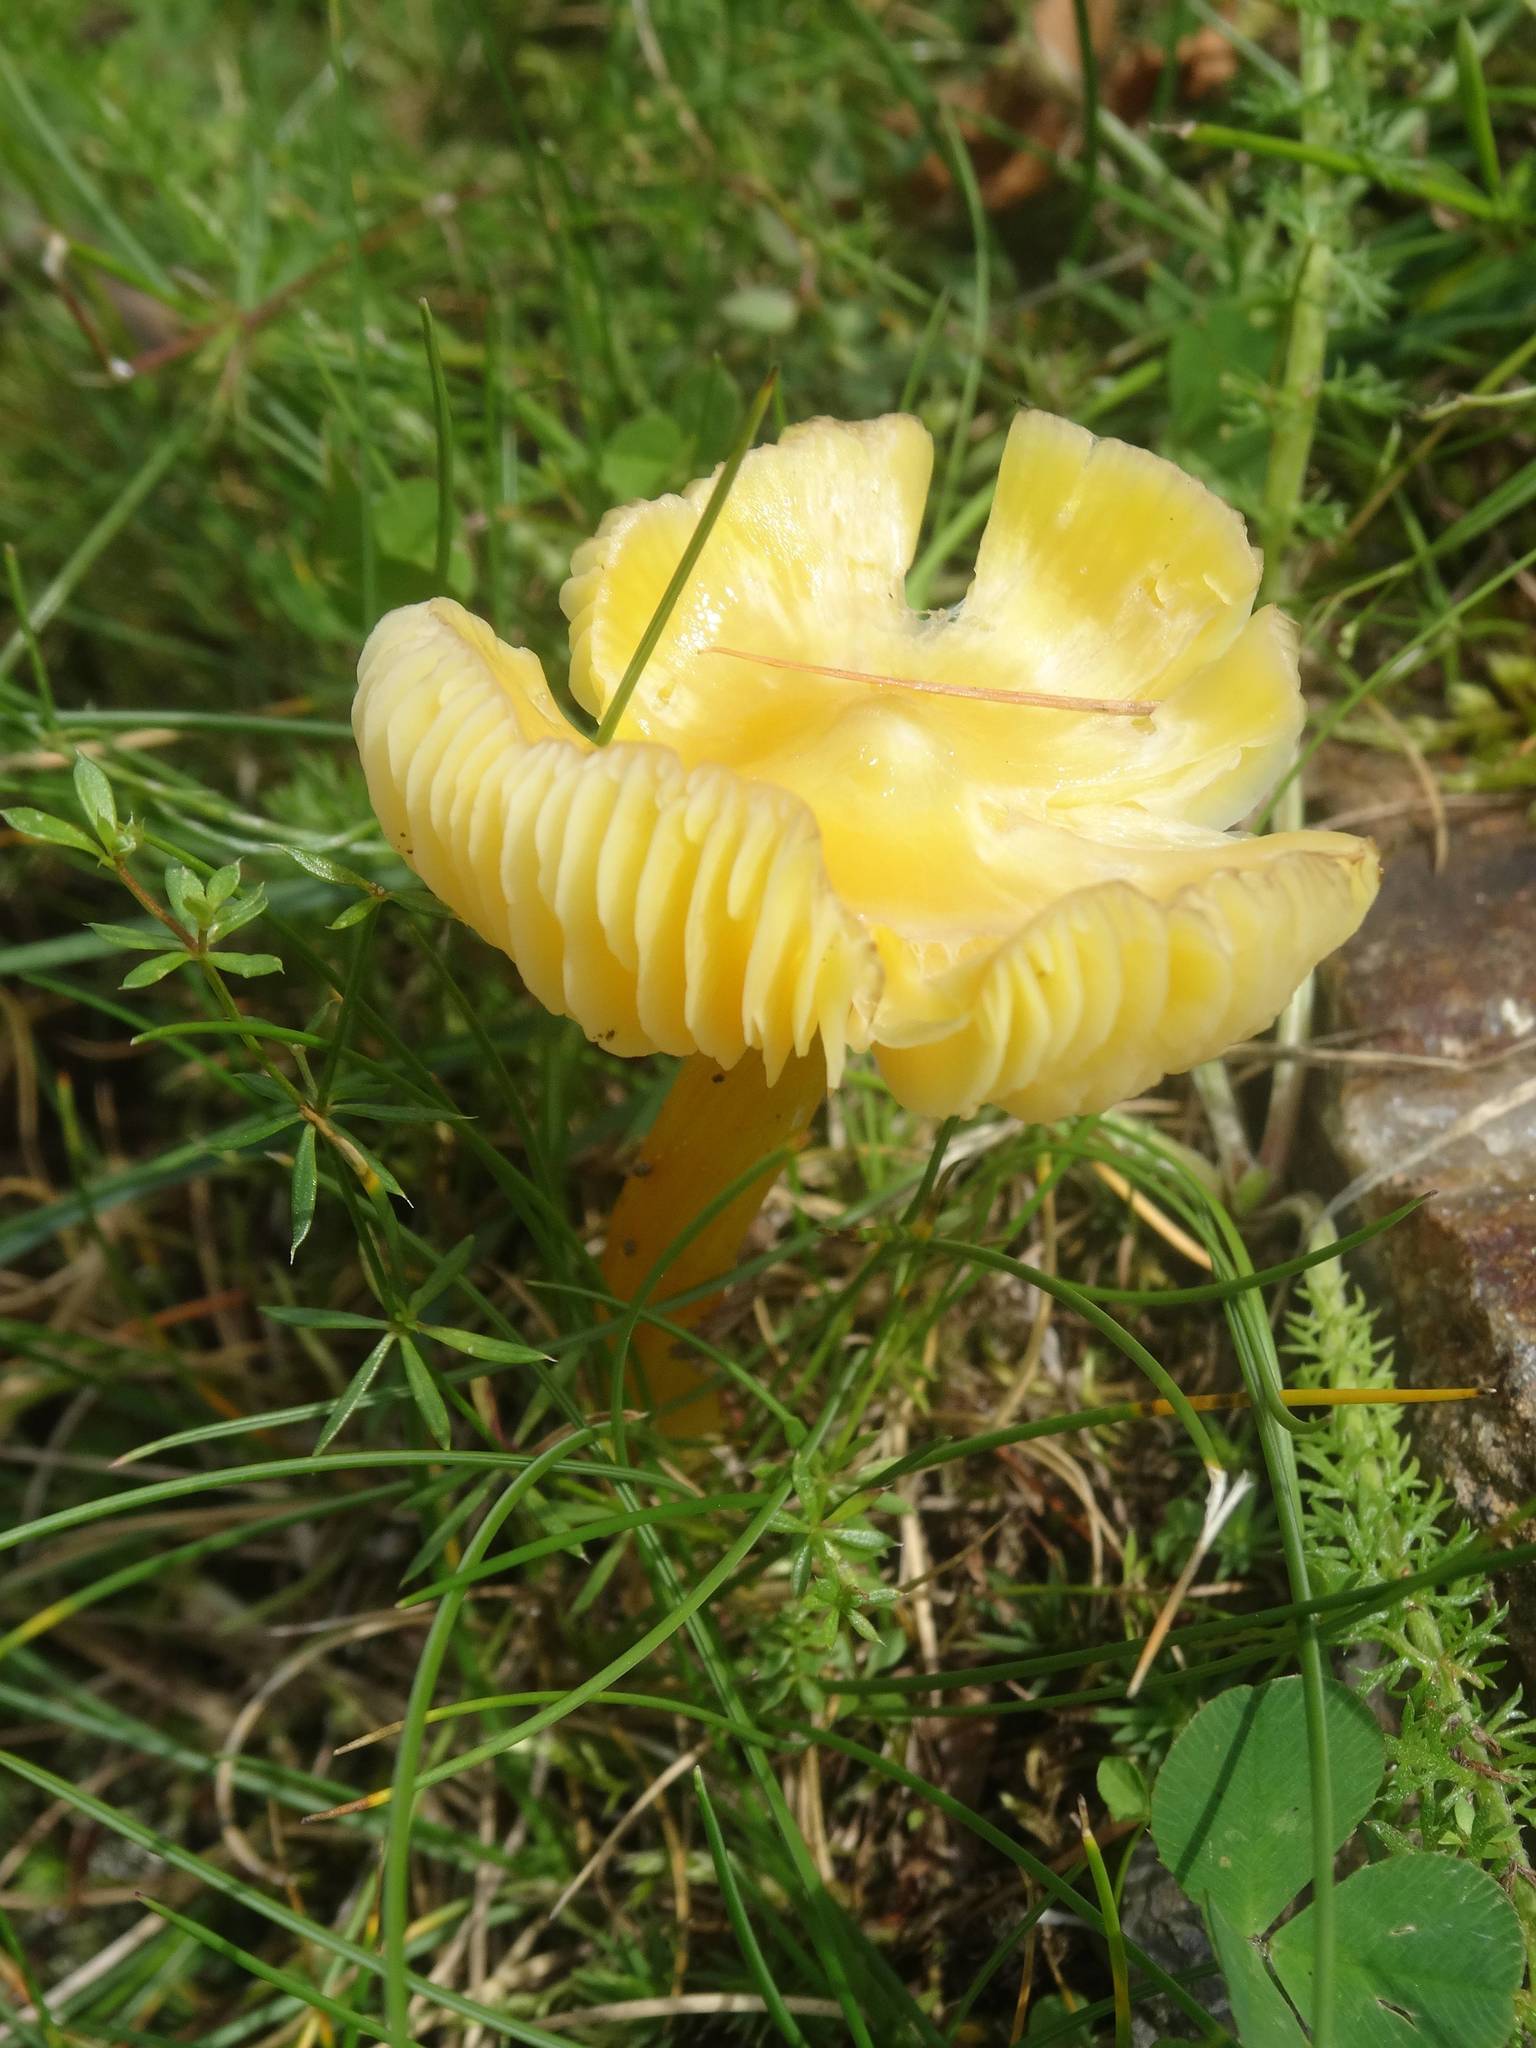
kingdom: Fungi
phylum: Basidiomycota
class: Agaricomycetes
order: Agaricales
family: Hygrophoraceae
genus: Hygrocybe
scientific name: Hygrocybe acutoconica
